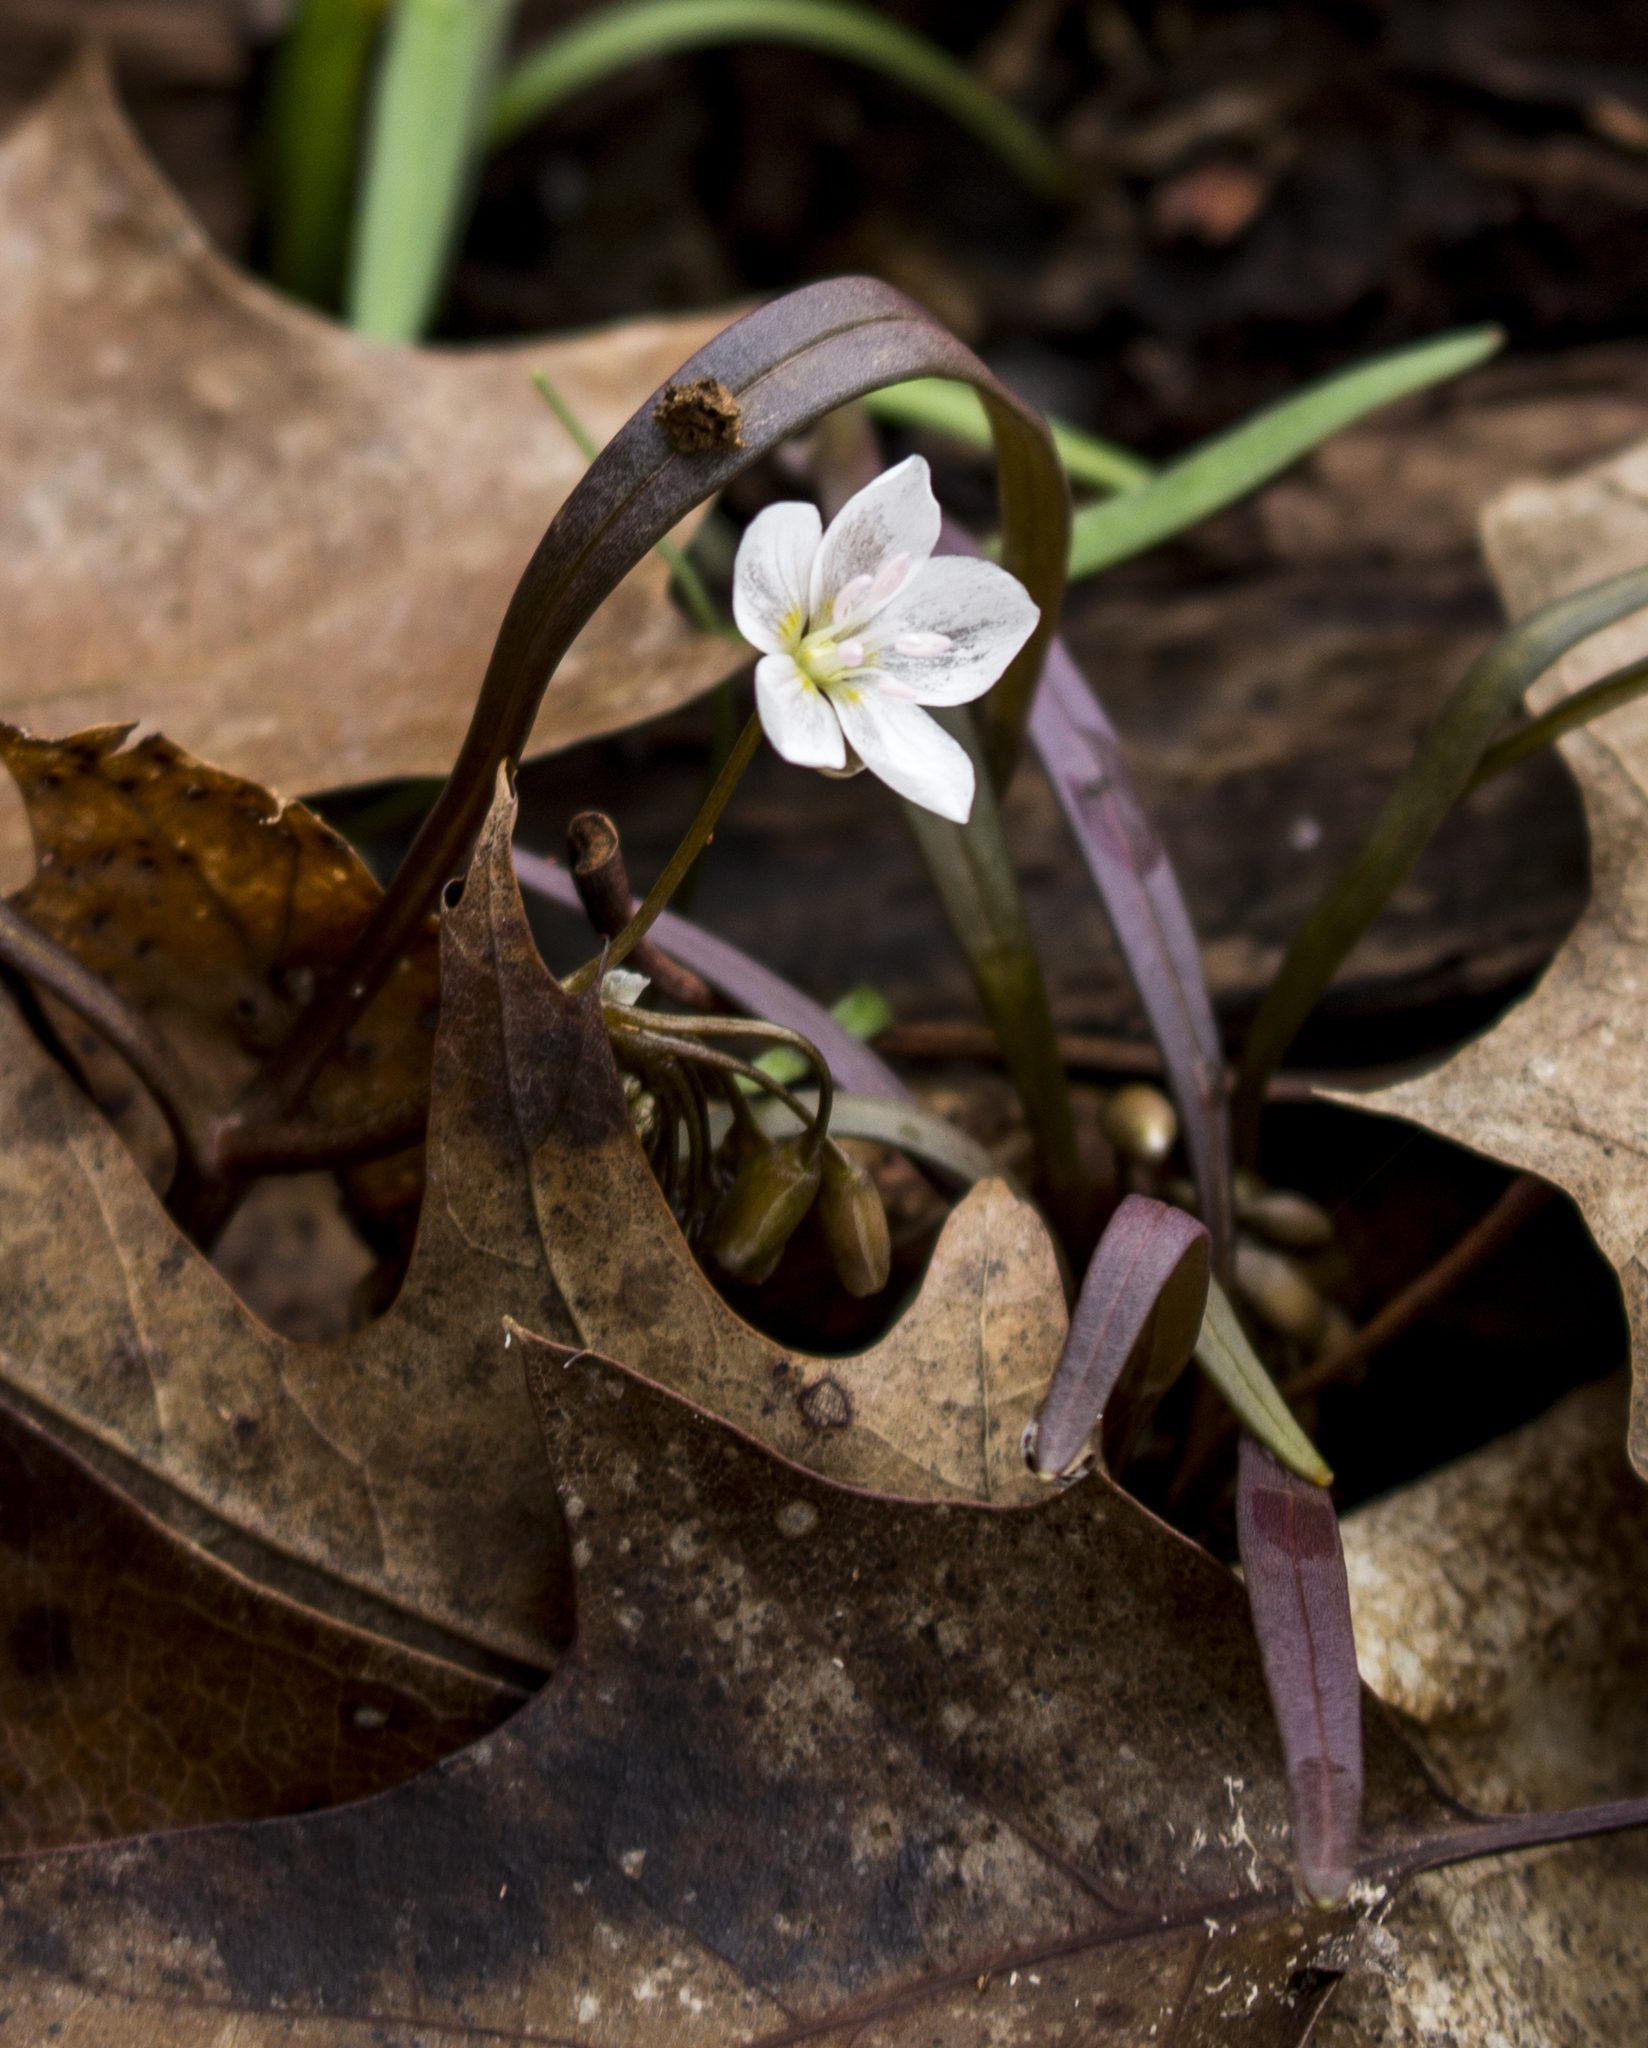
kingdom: Plantae
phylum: Tracheophyta
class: Magnoliopsida
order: Caryophyllales
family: Montiaceae
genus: Claytonia
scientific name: Claytonia virginica
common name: Virginia springbeauty
